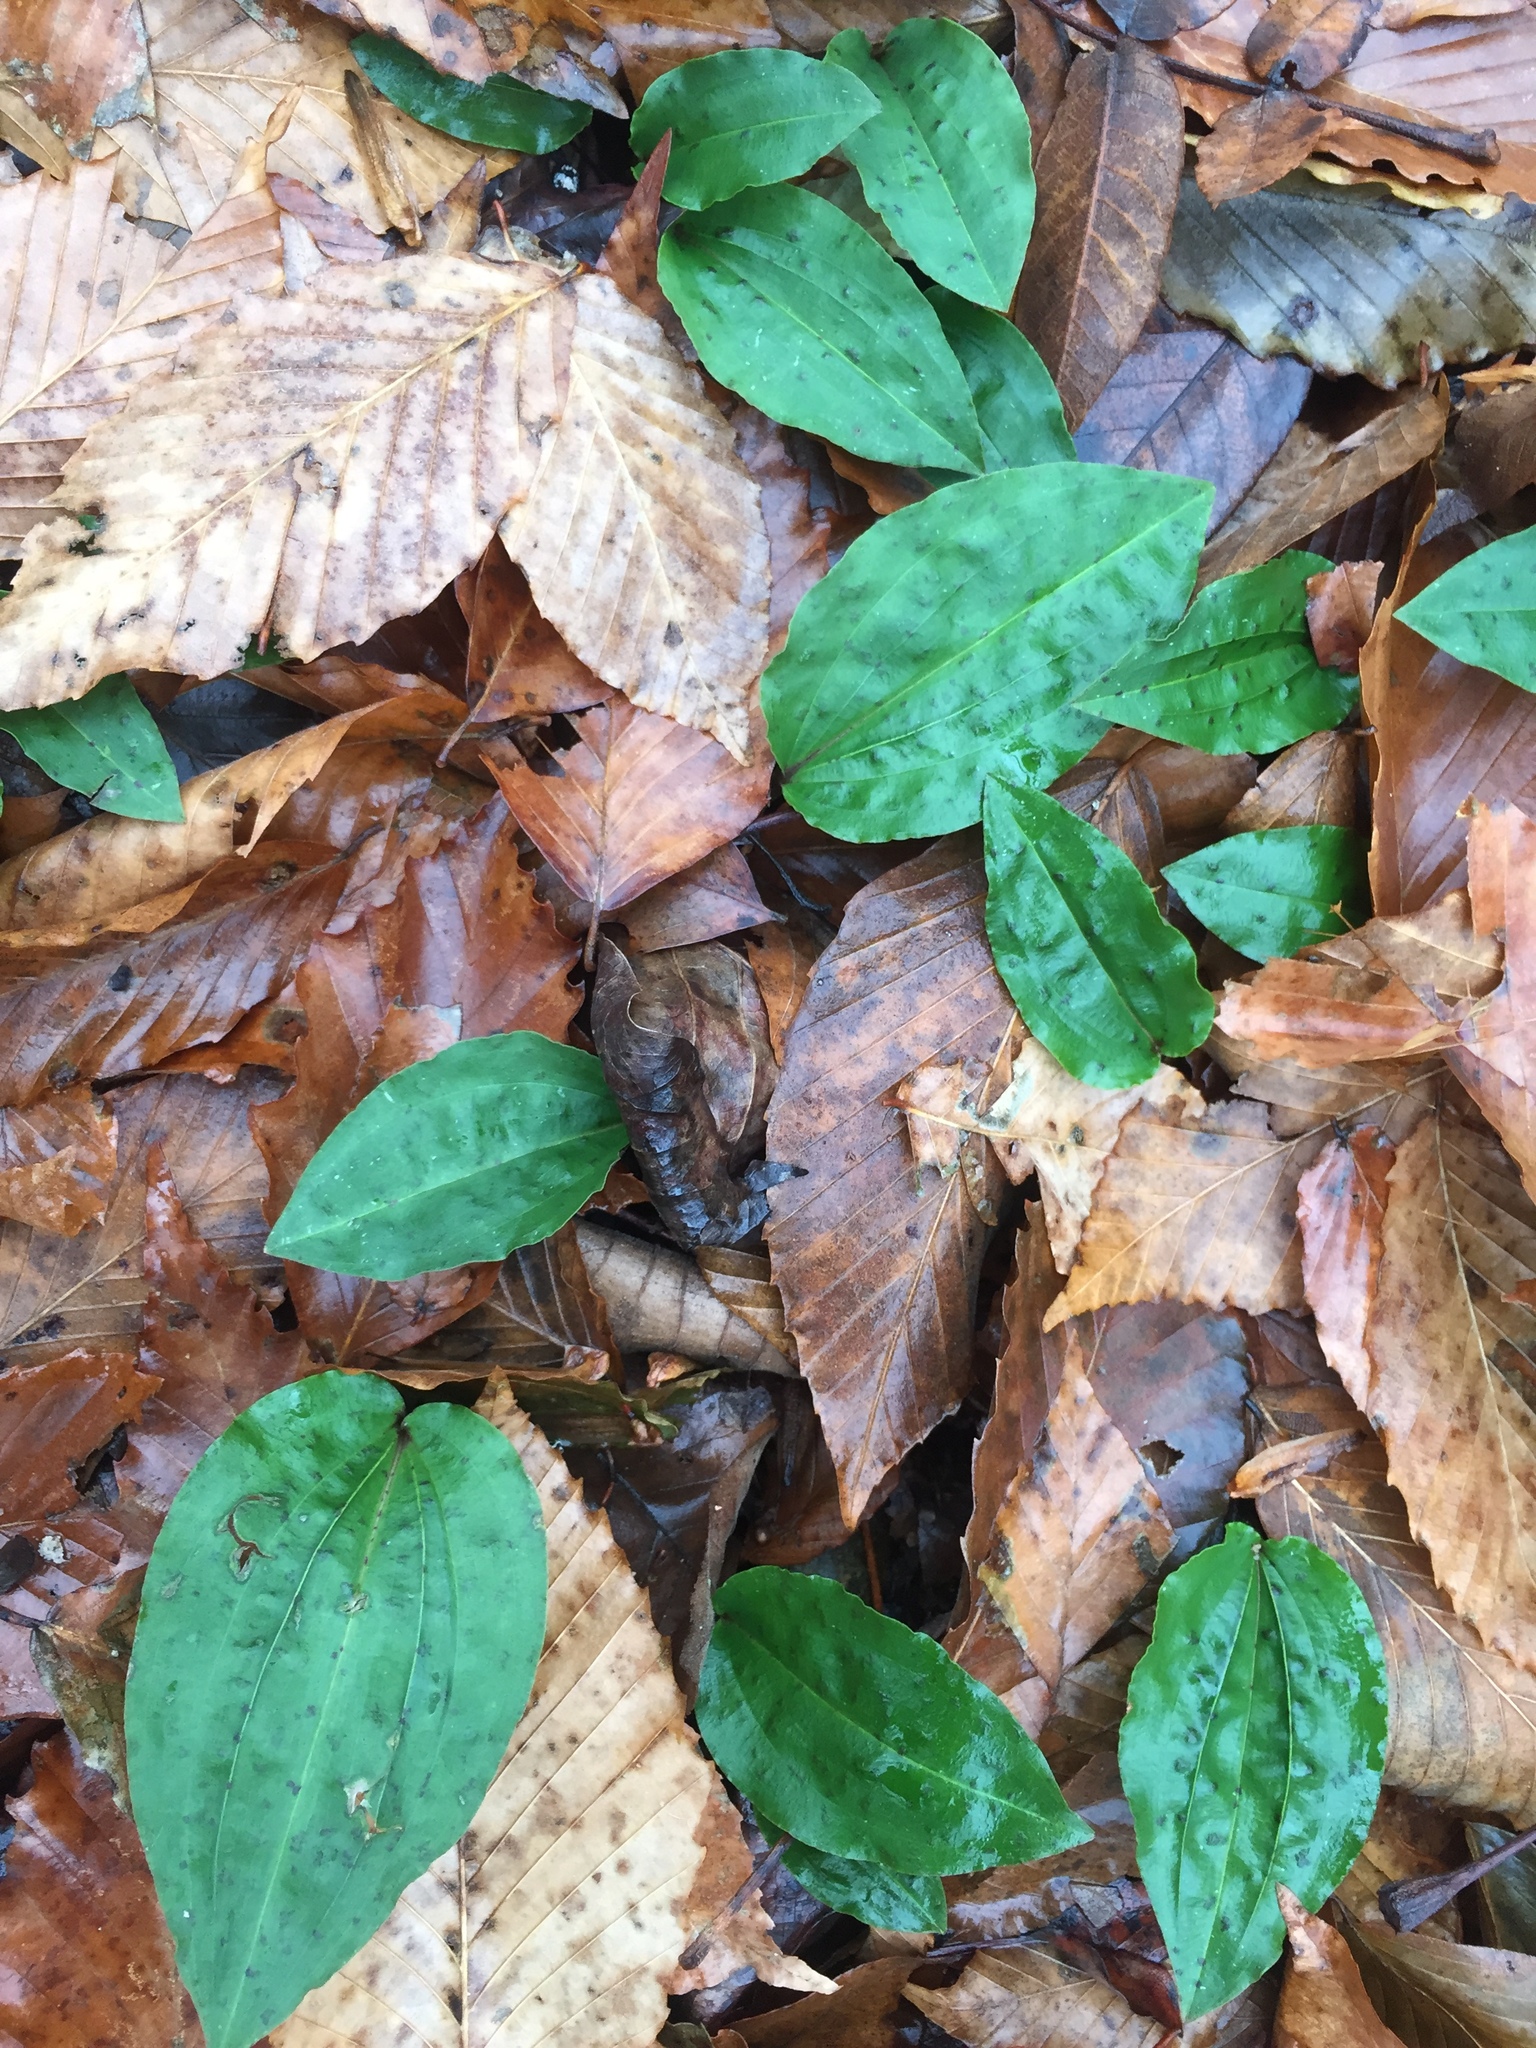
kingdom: Plantae
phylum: Tracheophyta
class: Liliopsida
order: Asparagales
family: Orchidaceae
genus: Tipularia
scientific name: Tipularia discolor
